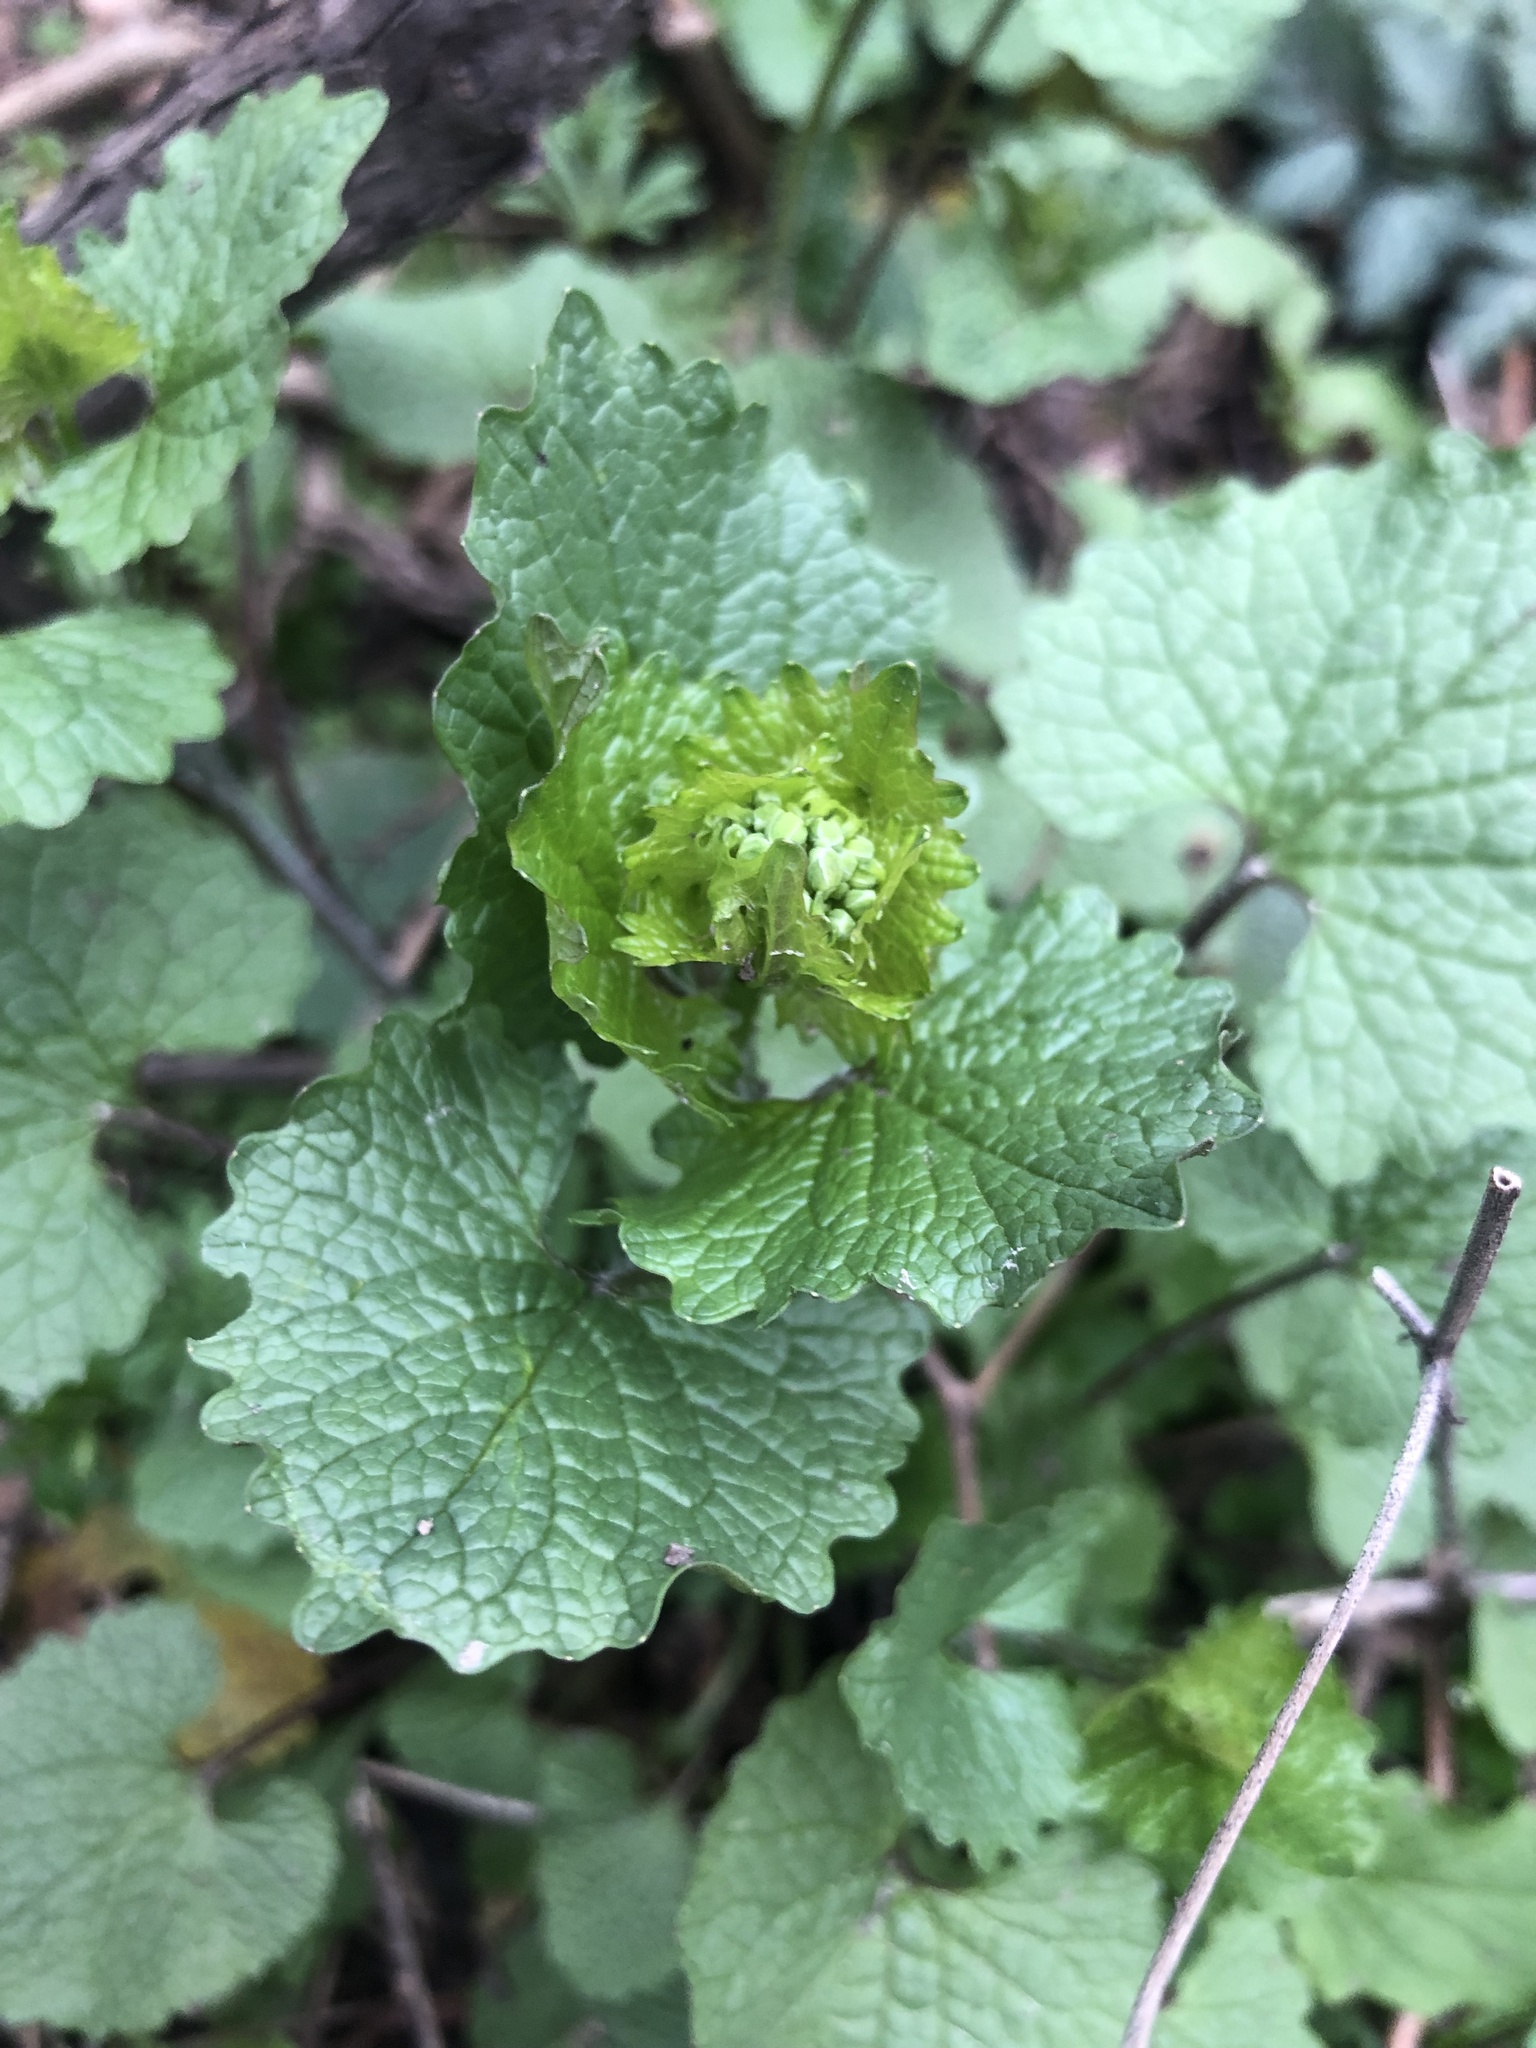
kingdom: Plantae
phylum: Tracheophyta
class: Magnoliopsida
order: Brassicales
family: Brassicaceae
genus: Alliaria
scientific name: Alliaria petiolata
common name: Garlic mustard
